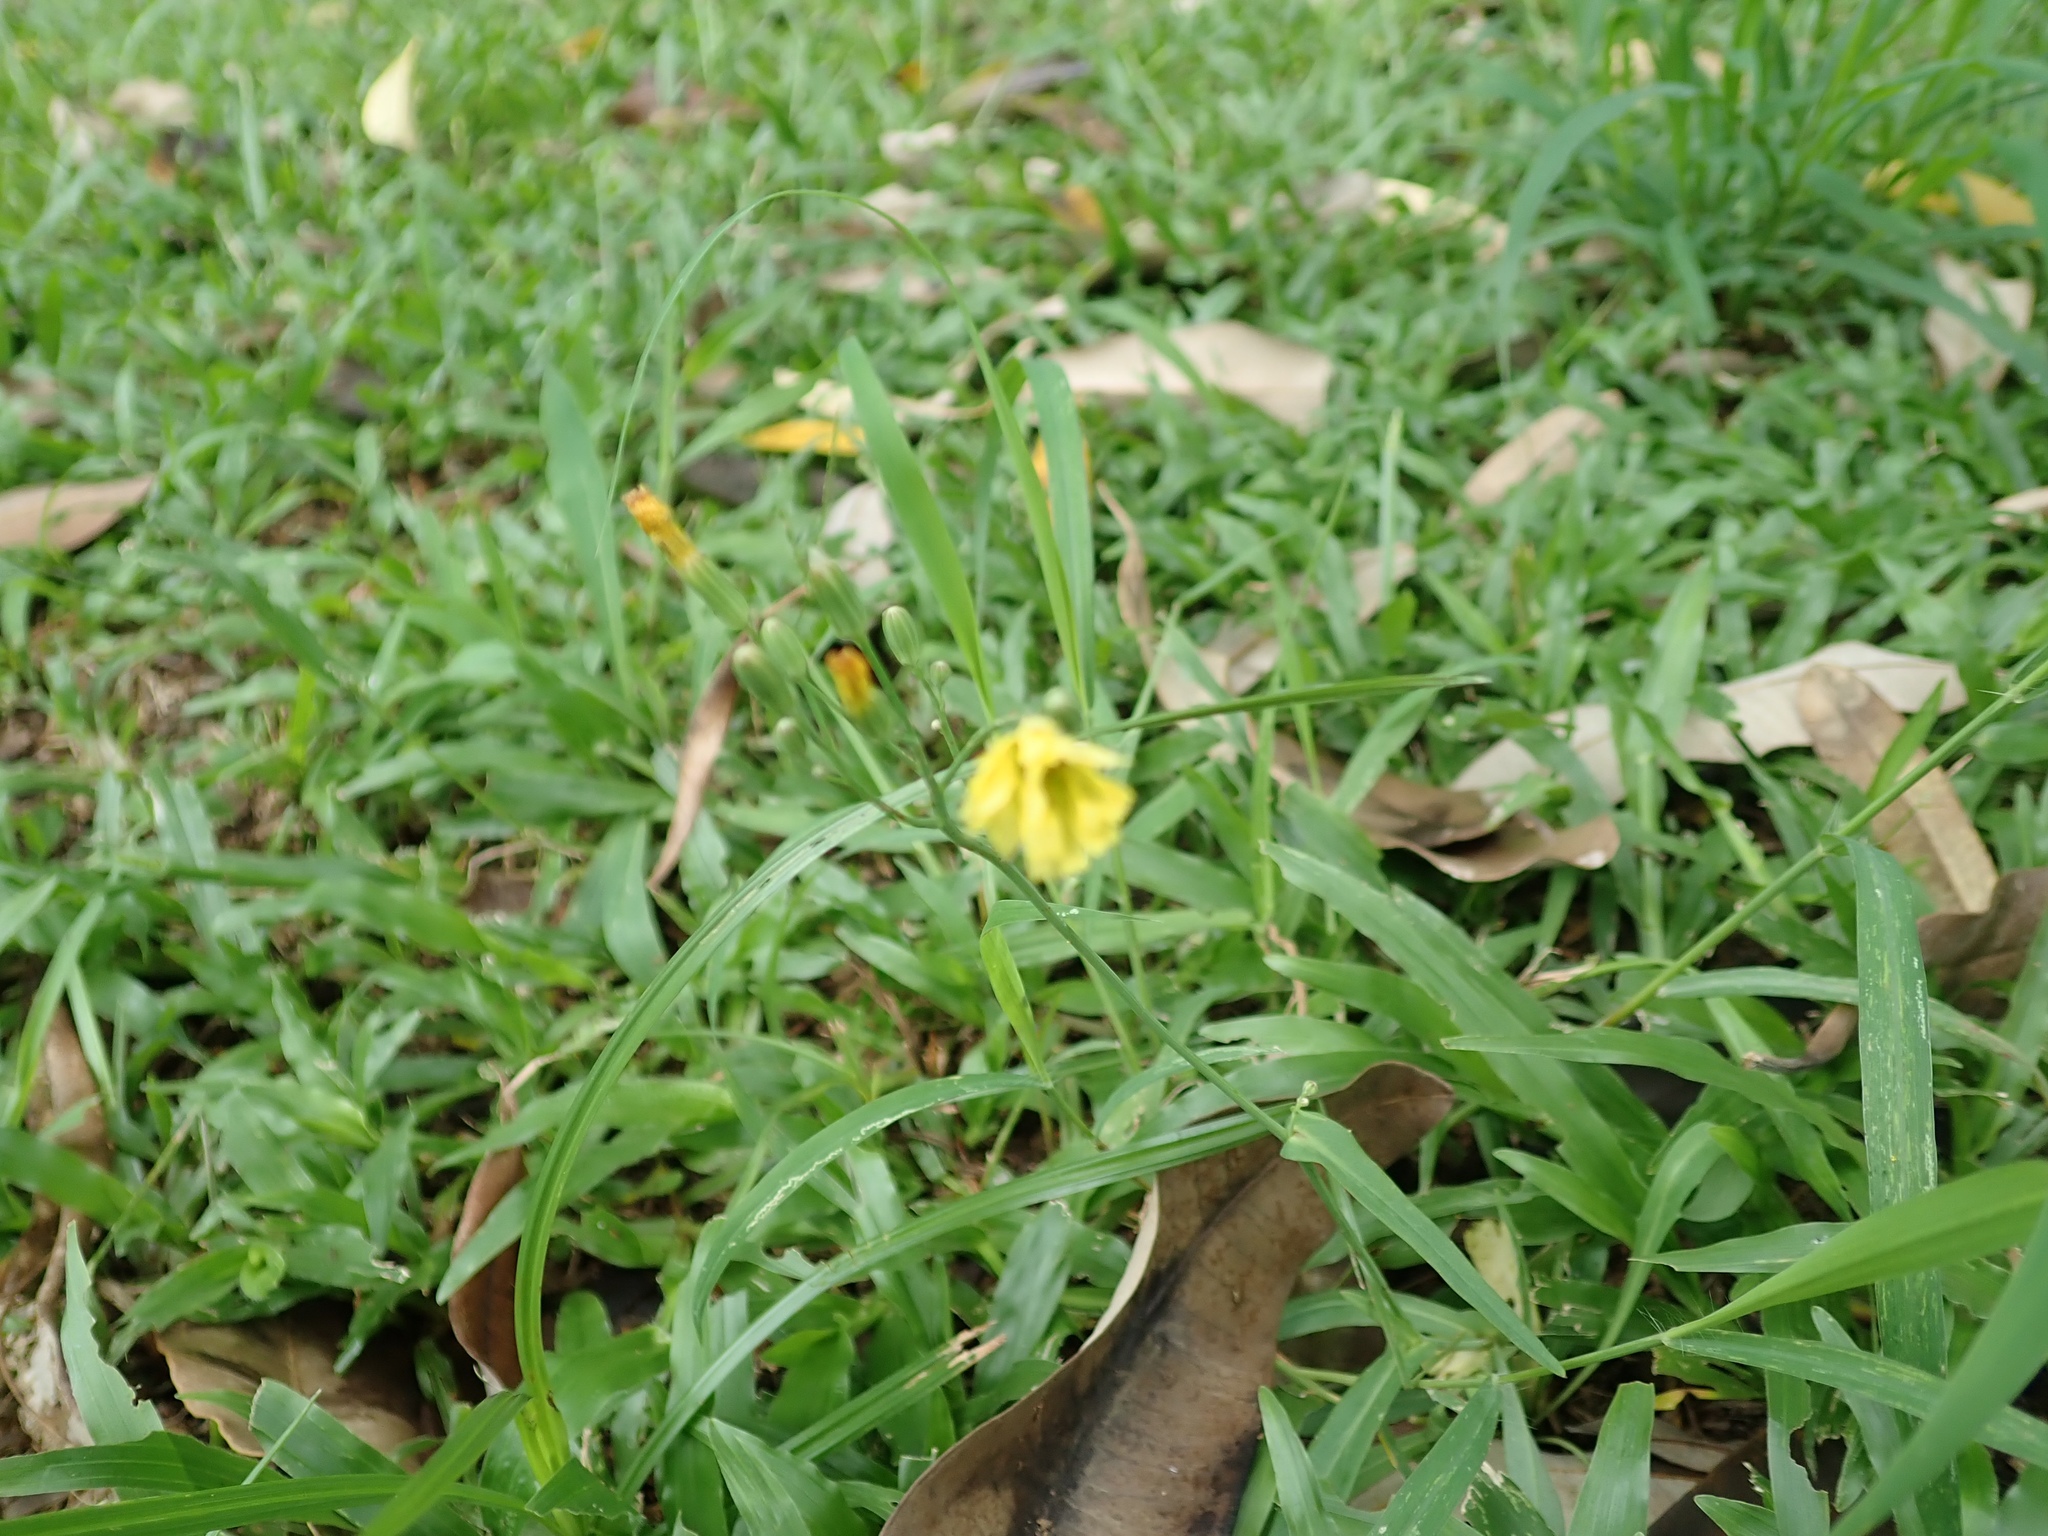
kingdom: Plantae
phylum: Tracheophyta
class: Magnoliopsida
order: Asterales
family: Asteraceae
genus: Ixeris
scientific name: Ixeris chinensis
